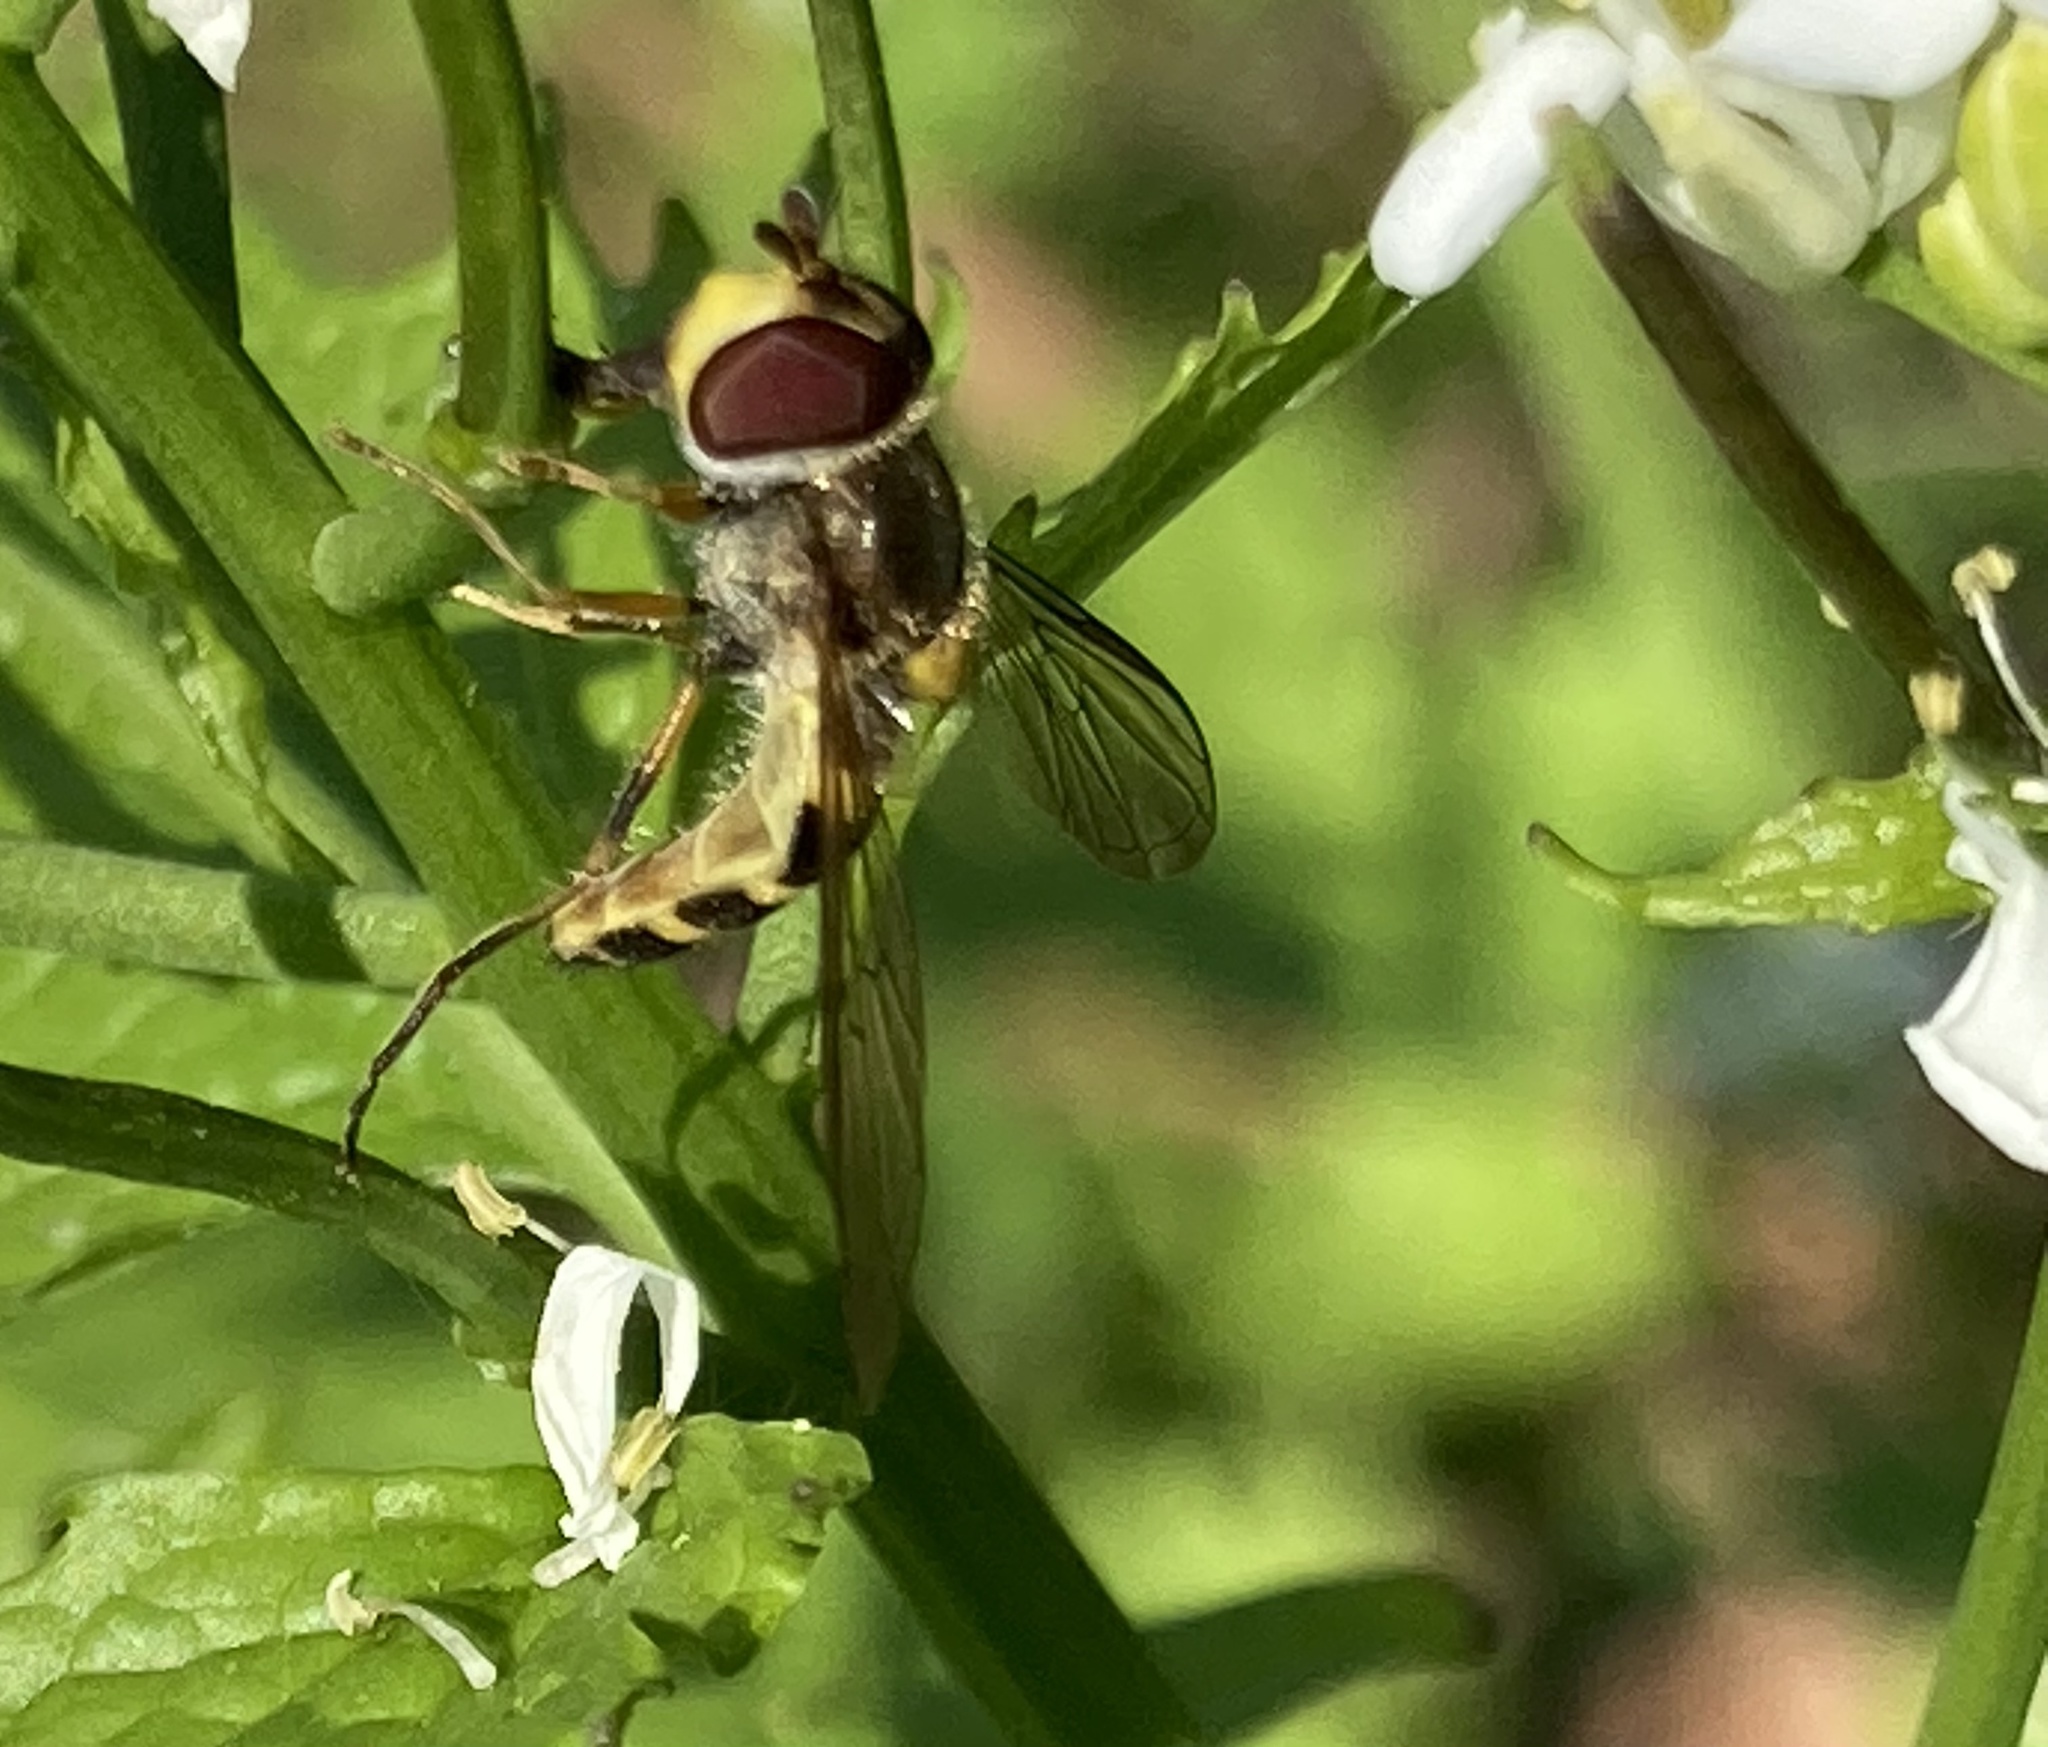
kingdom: Animalia
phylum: Arthropoda
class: Insecta
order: Diptera
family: Syrphidae
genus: Syrphus
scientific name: Syrphus rectus
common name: Yellow-legged flower fly
